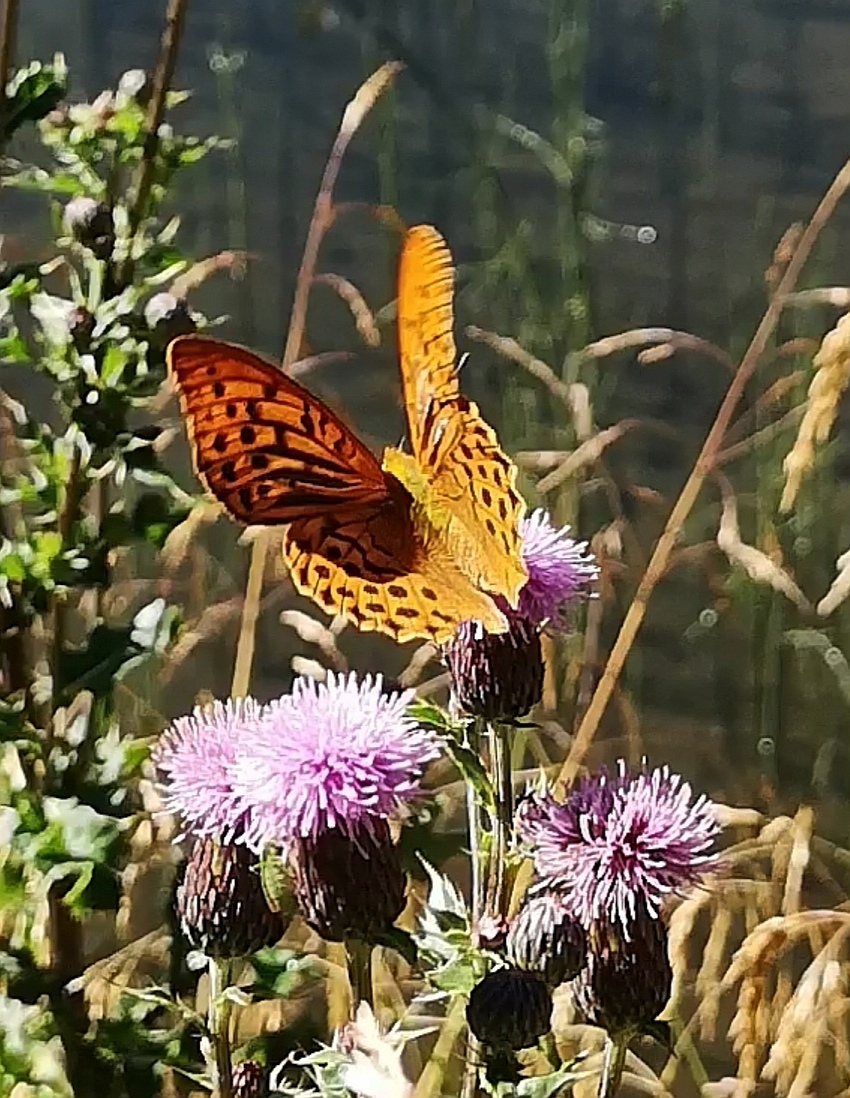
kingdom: Animalia
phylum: Arthropoda
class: Insecta
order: Lepidoptera
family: Nymphalidae
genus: Argynnis
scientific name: Argynnis paphia
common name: Silver-washed fritillary
